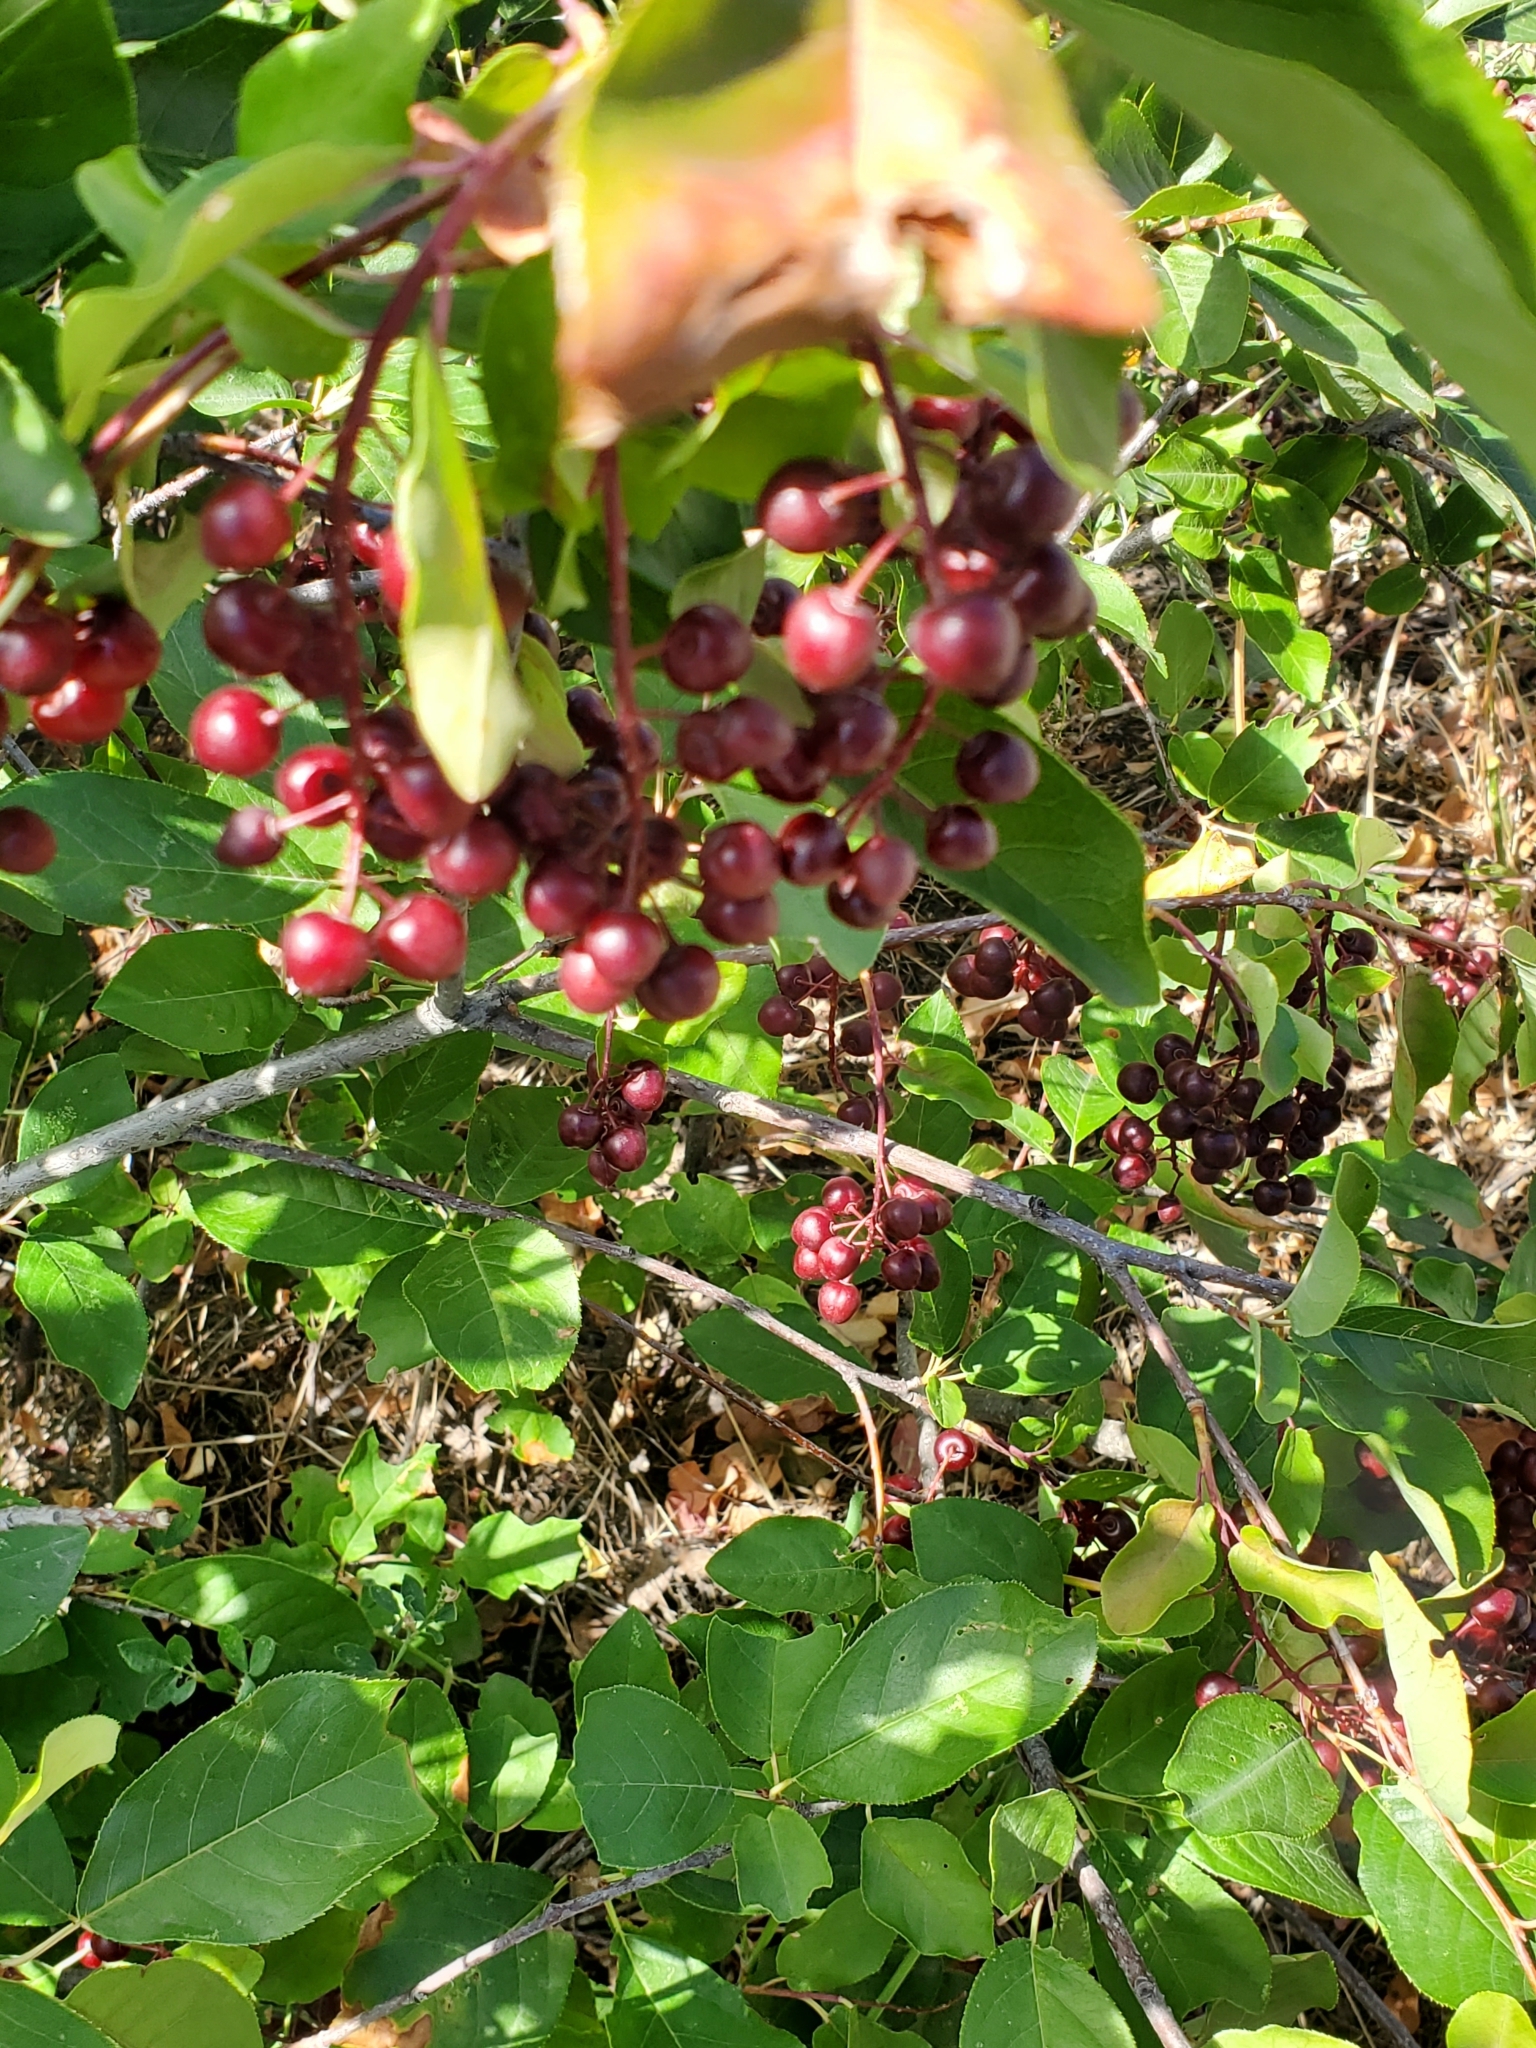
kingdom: Plantae
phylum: Tracheophyta
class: Magnoliopsida
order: Rosales
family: Rosaceae
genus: Prunus
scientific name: Prunus virginiana
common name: Chokecherry
